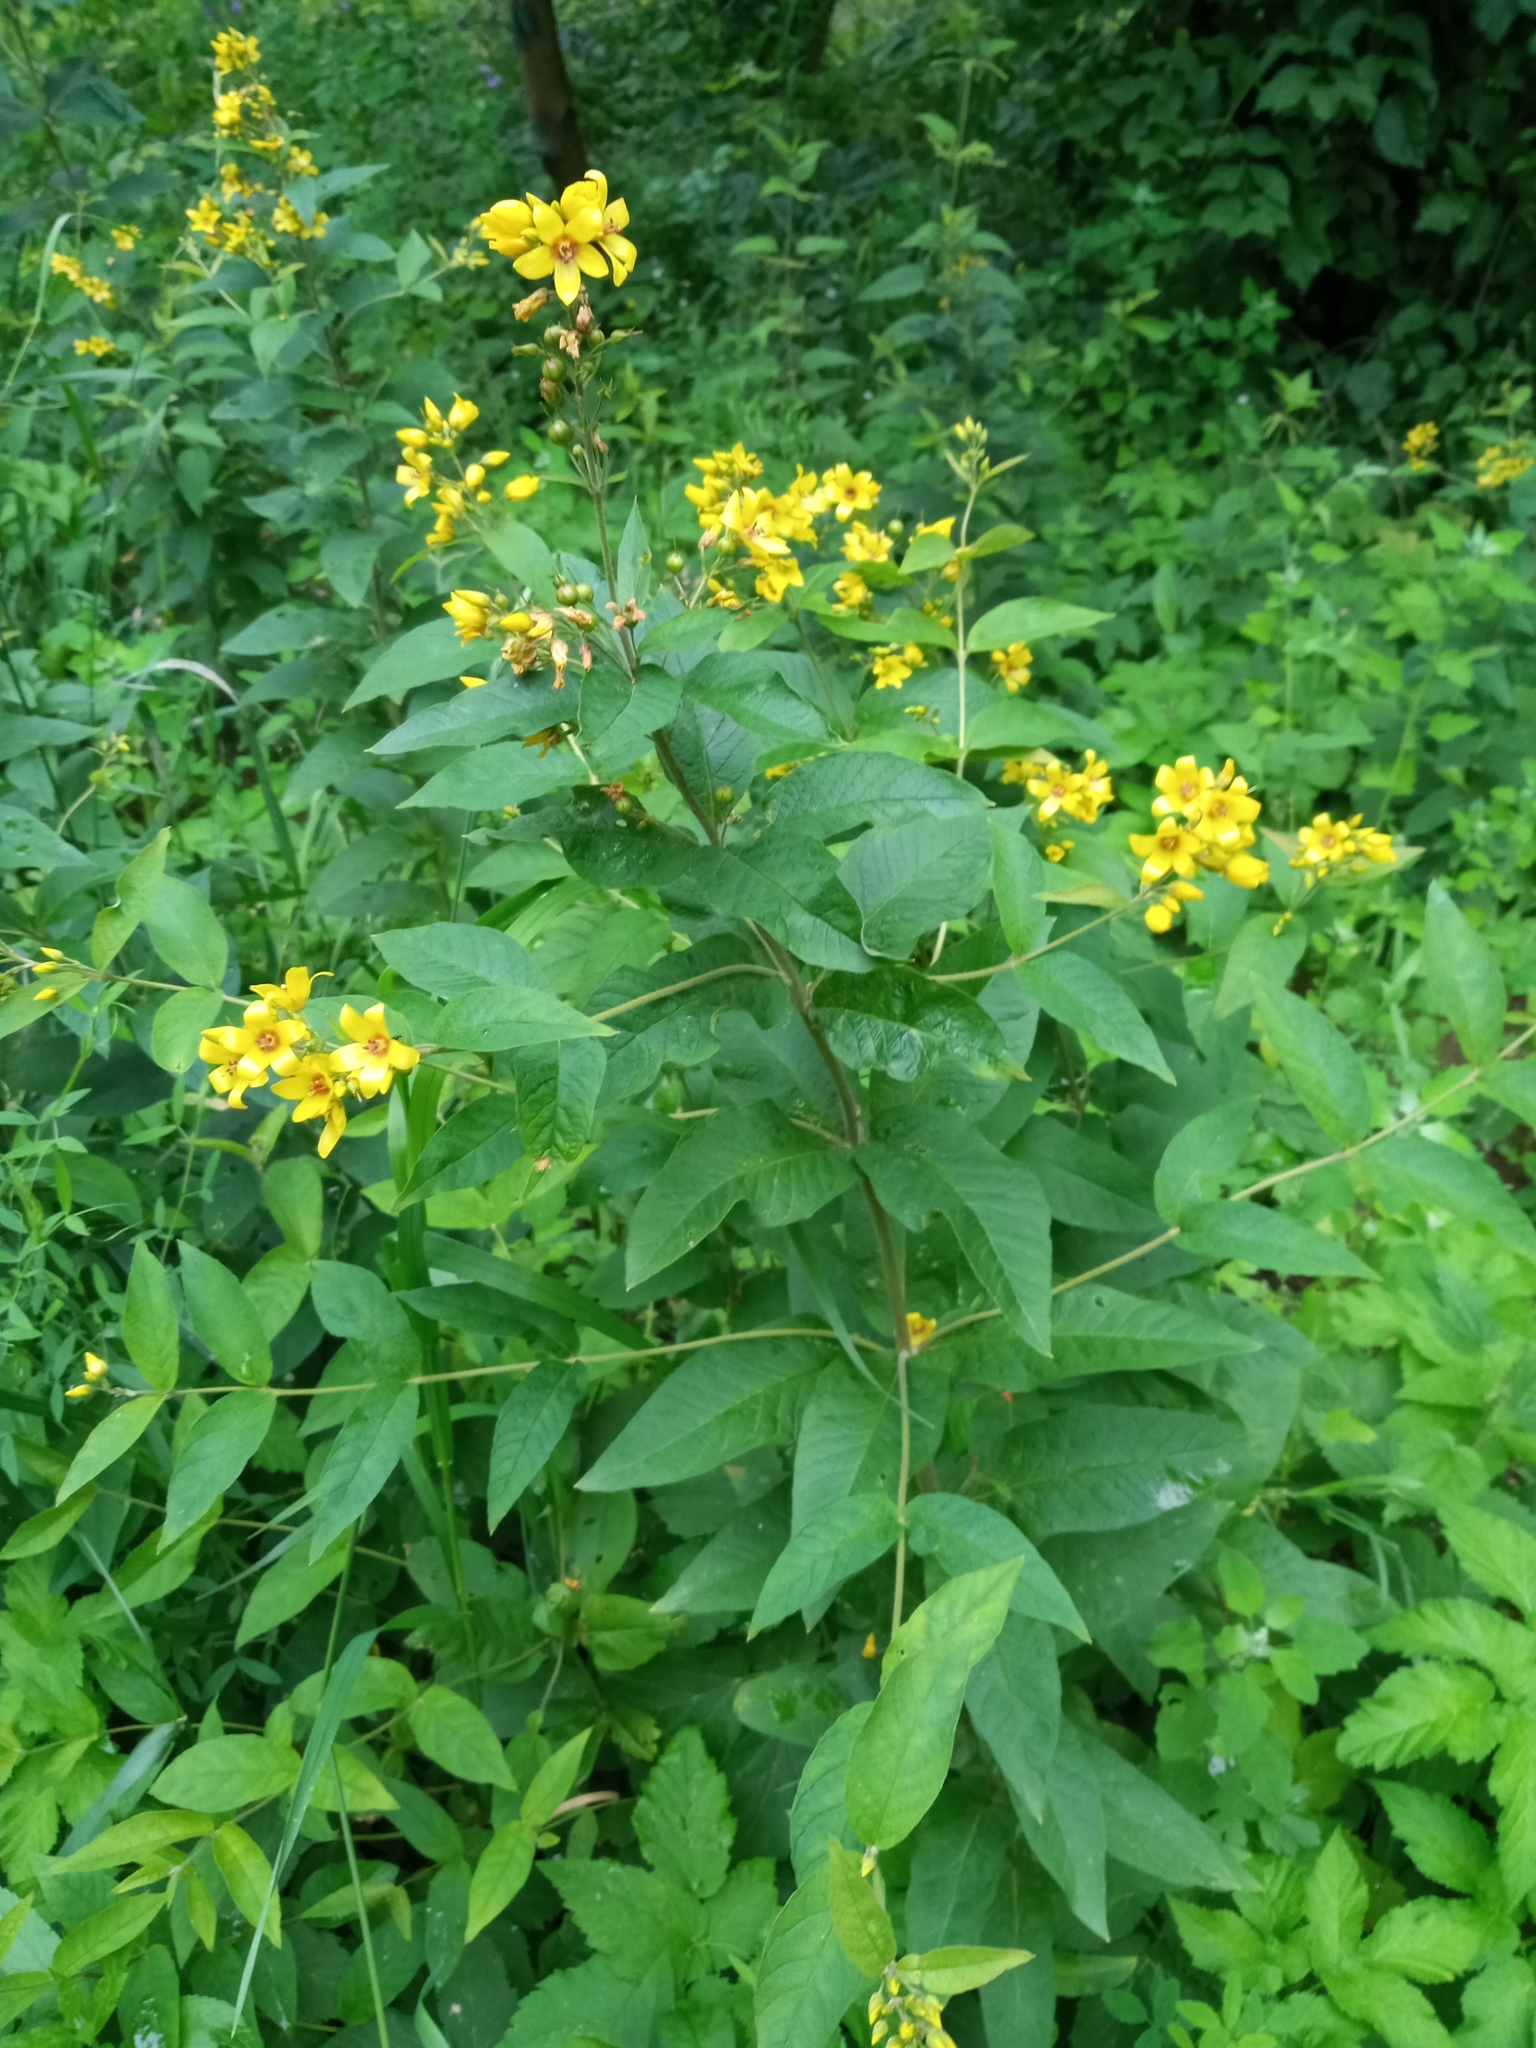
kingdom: Plantae
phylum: Tracheophyta
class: Magnoliopsida
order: Ericales
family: Primulaceae
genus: Lysimachia
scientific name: Lysimachia vulgaris
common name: Yellow loosestrife
